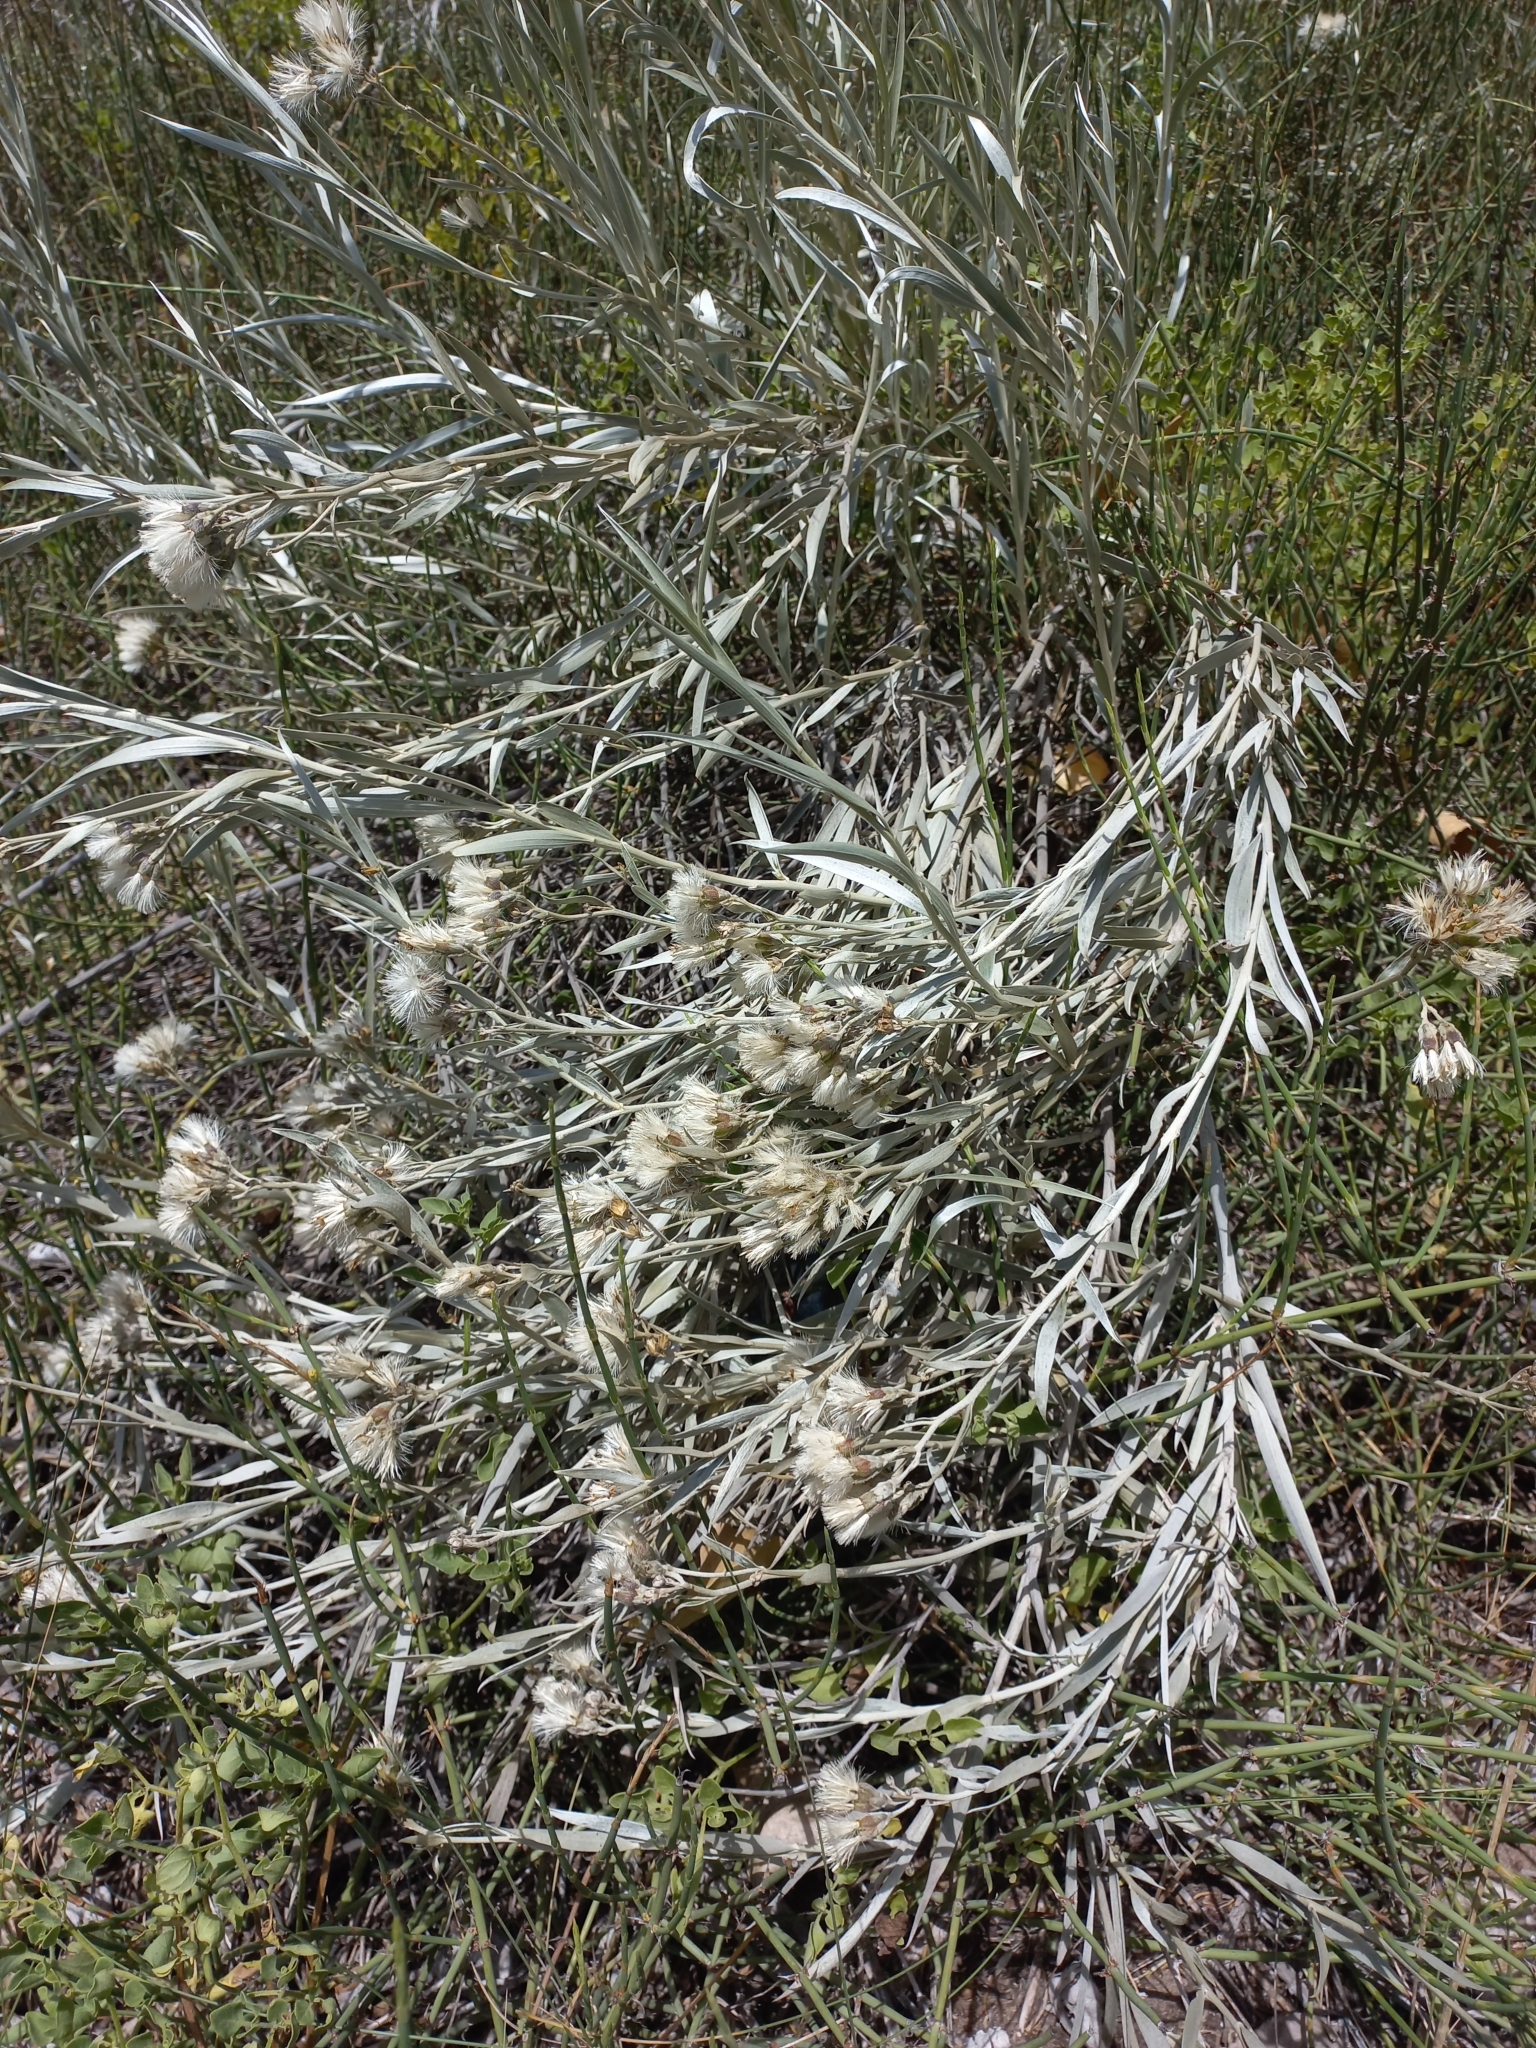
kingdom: Plantae
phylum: Tracheophyta
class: Magnoliopsida
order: Asterales
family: Asteraceae
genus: Hyalis
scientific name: Hyalis argentea
